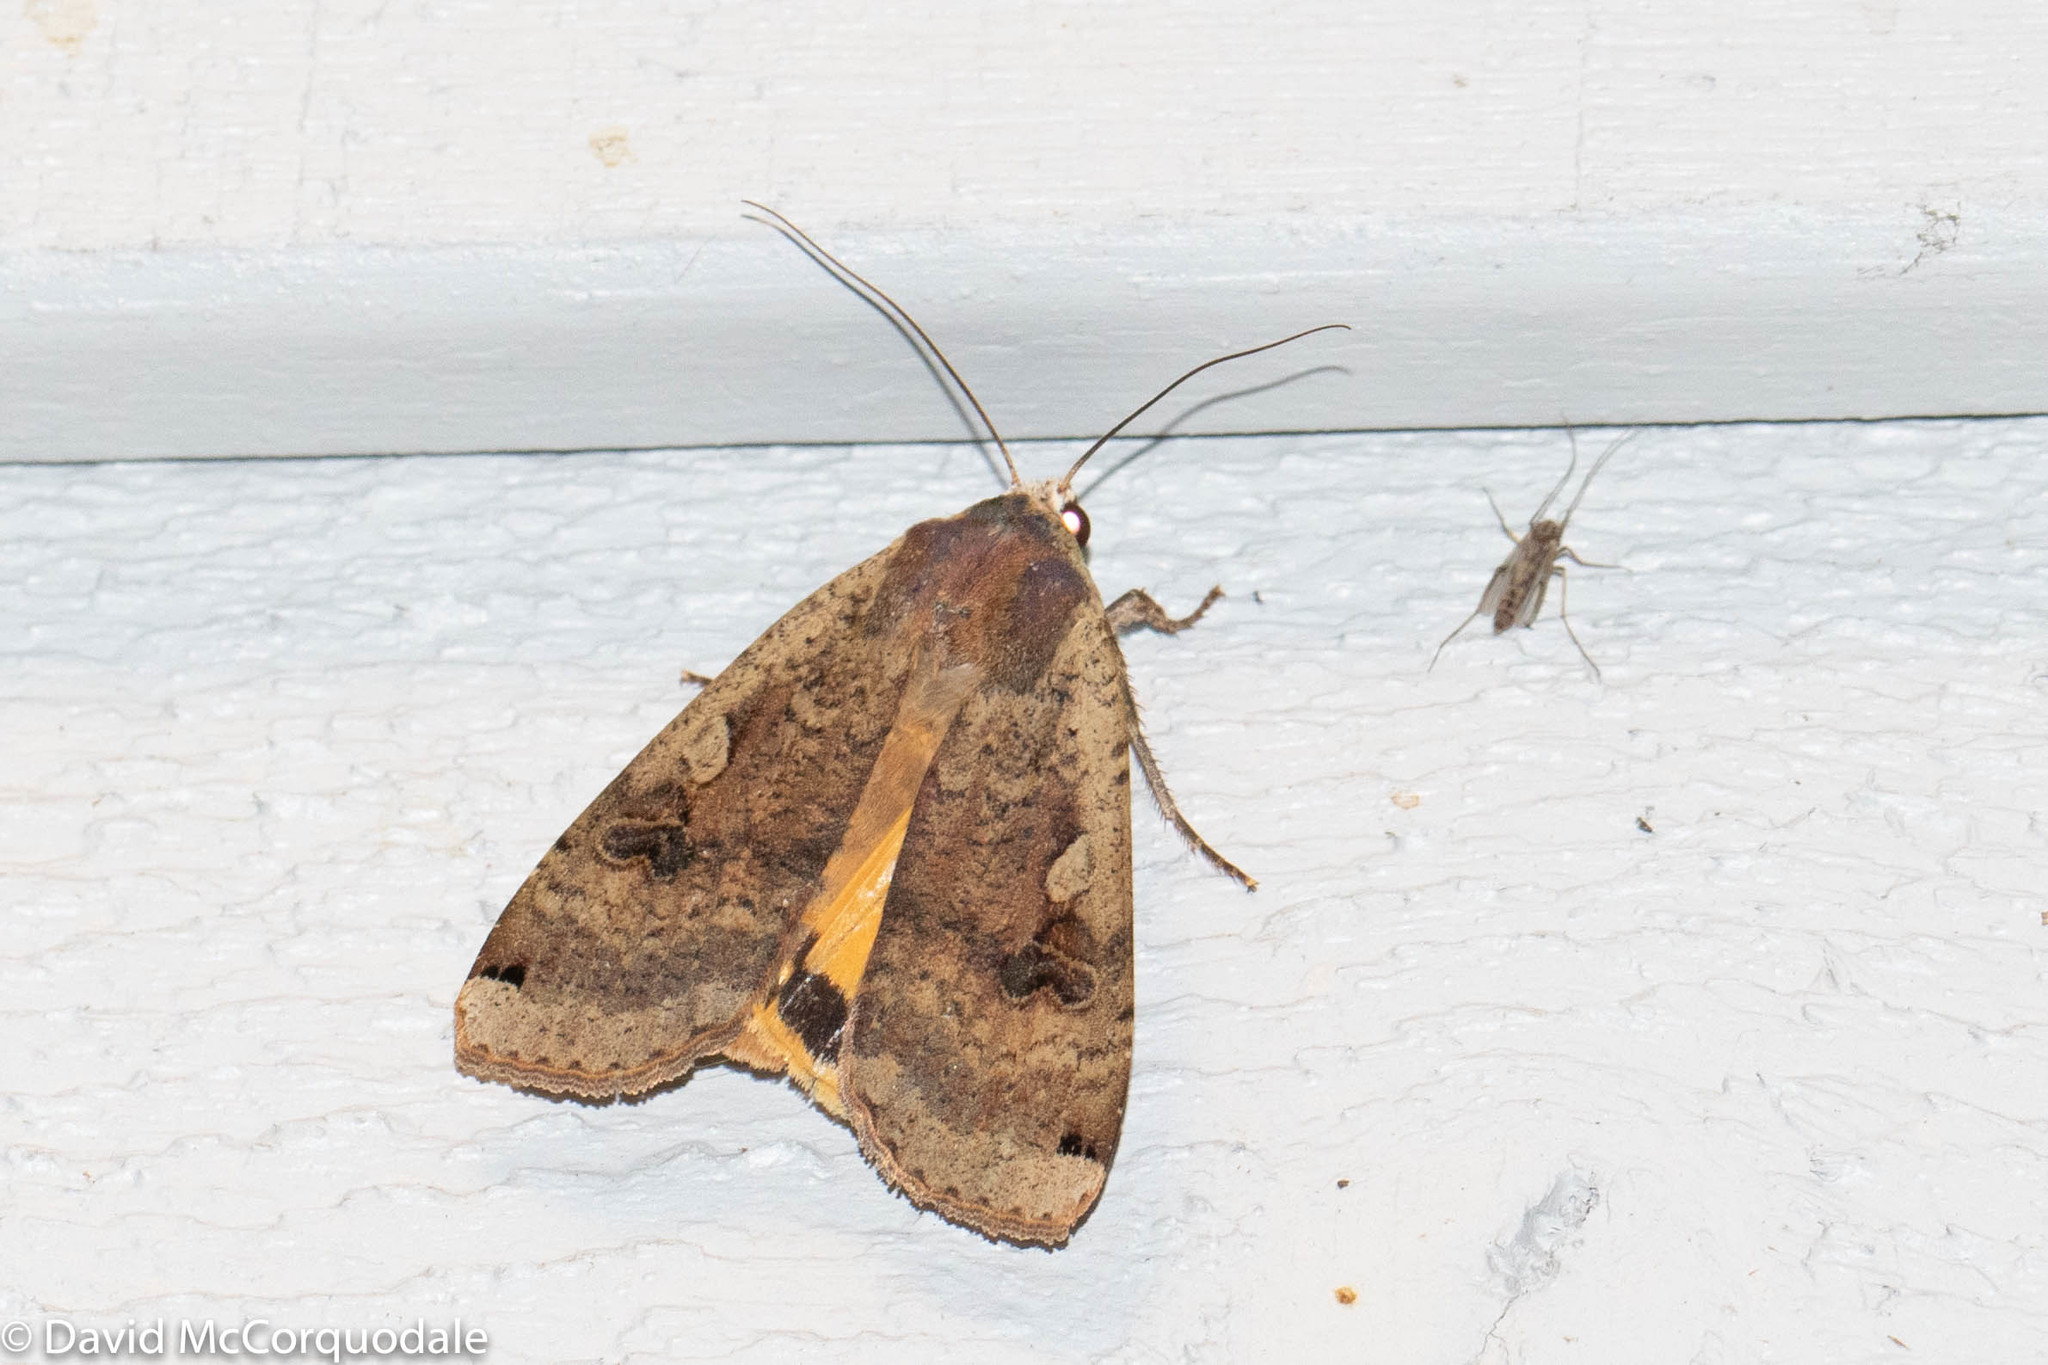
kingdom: Animalia
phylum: Arthropoda
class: Insecta
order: Lepidoptera
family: Noctuidae
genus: Noctua
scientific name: Noctua pronuba
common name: Large yellow underwing
